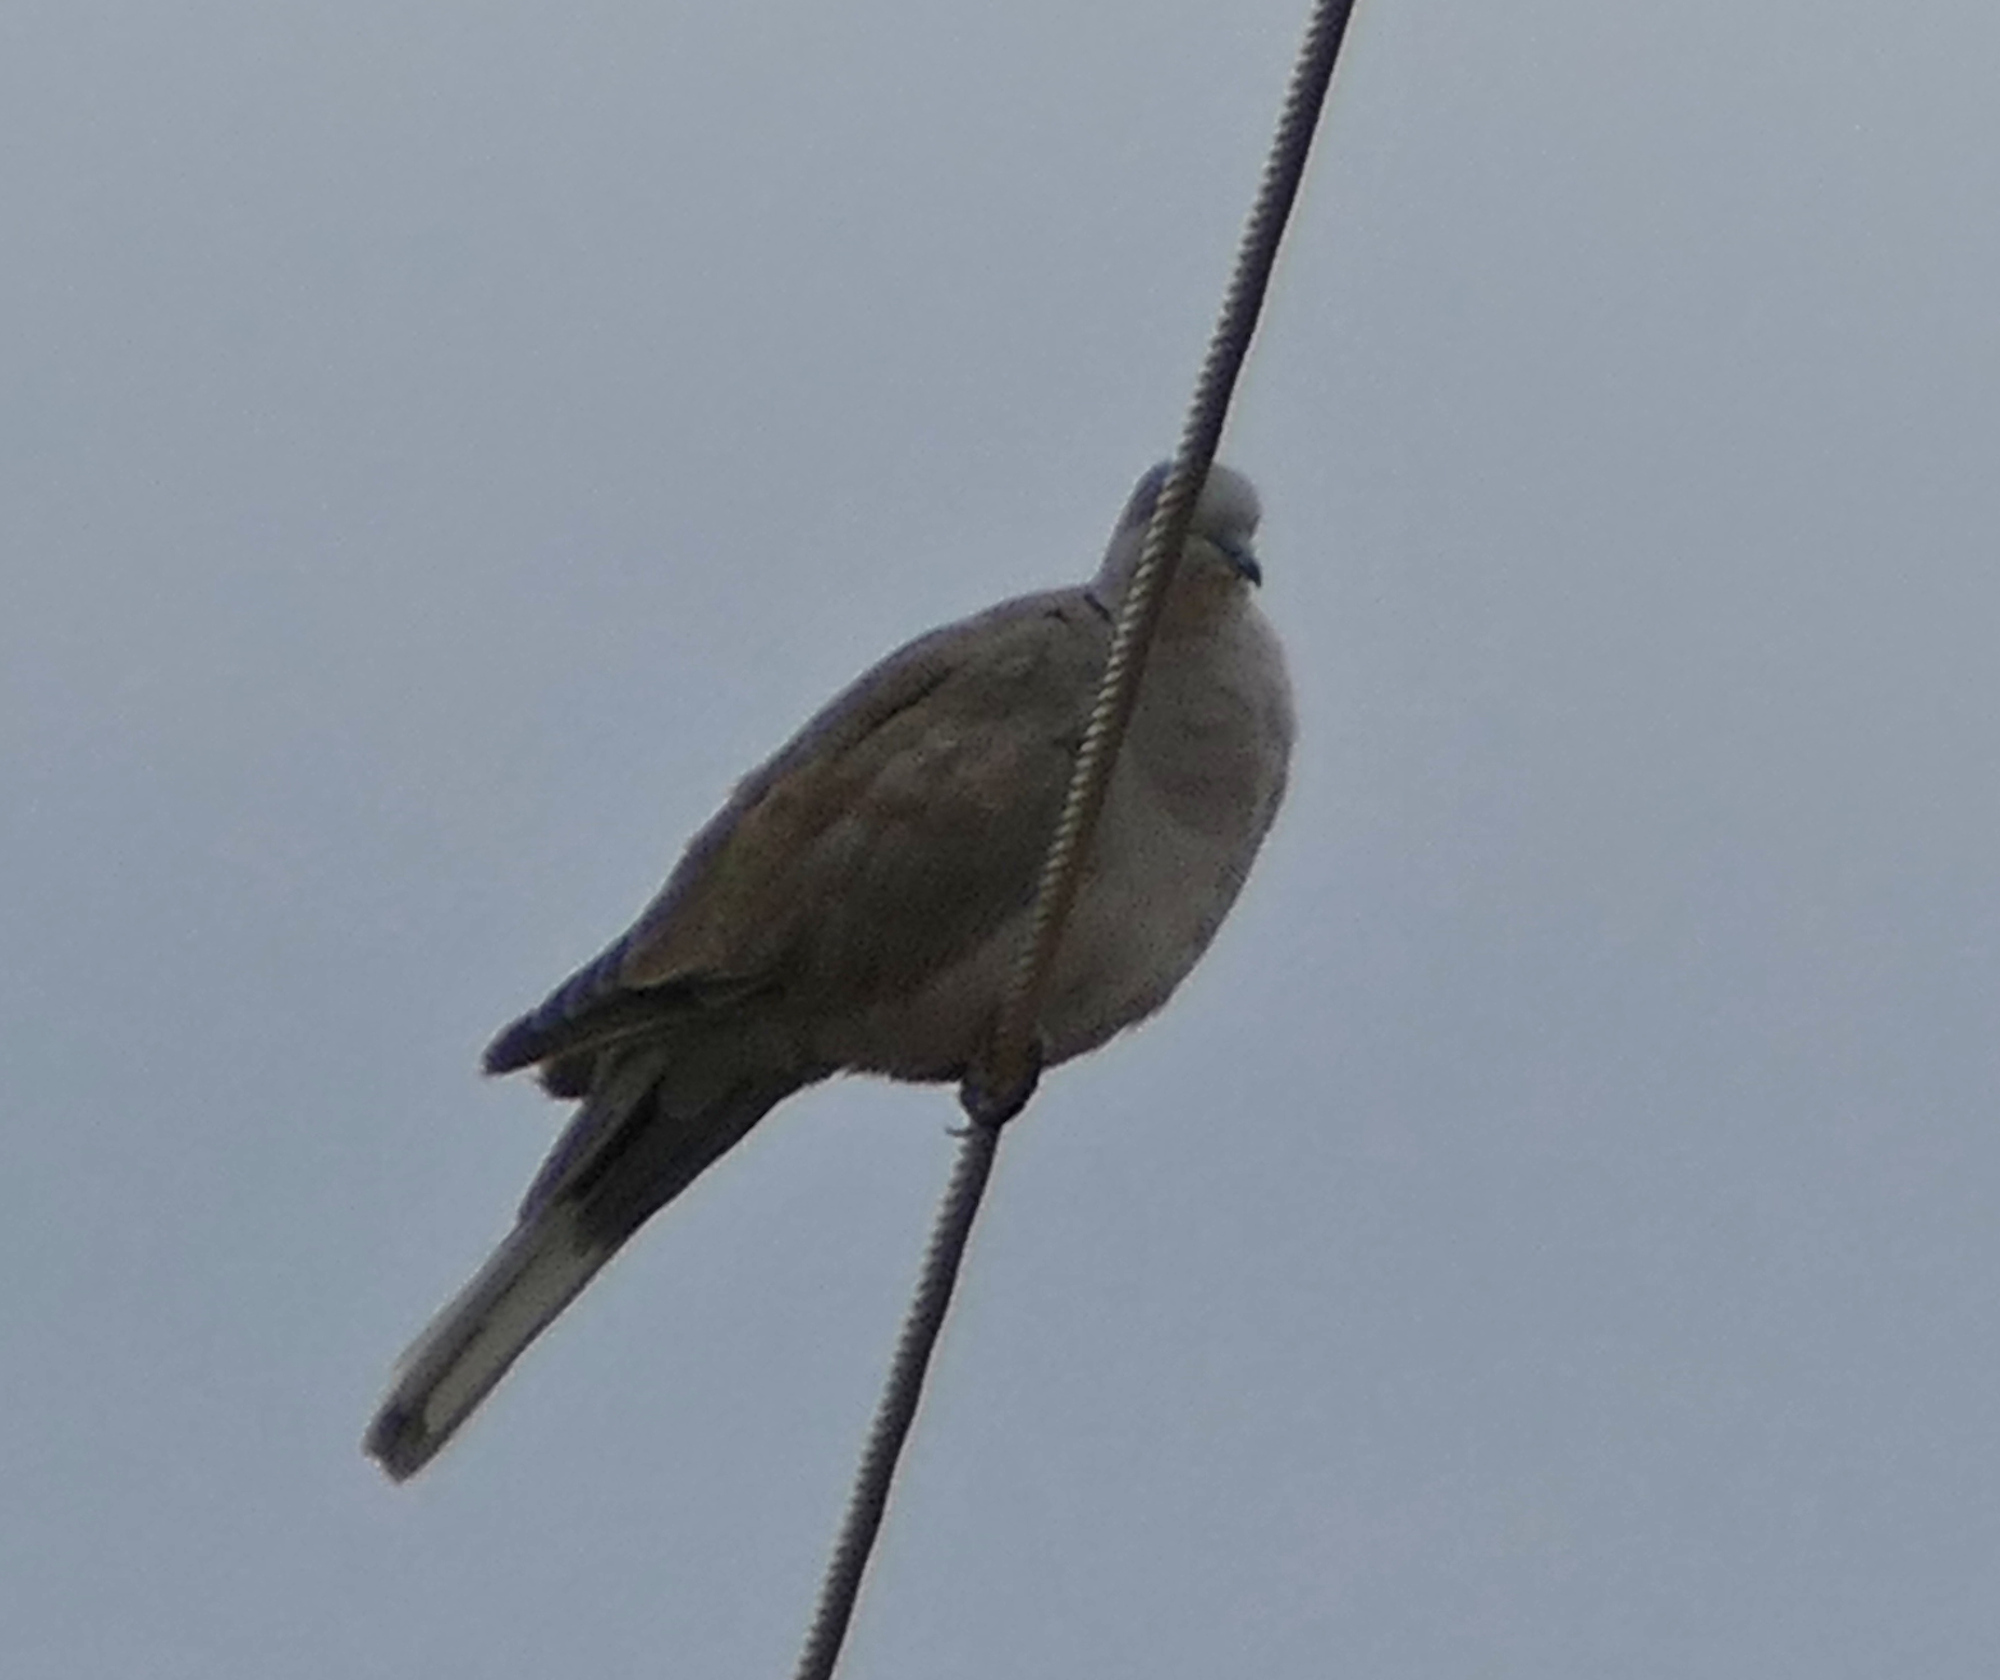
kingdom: Animalia
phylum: Chordata
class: Aves
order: Columbiformes
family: Columbidae
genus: Streptopelia
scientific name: Streptopelia decaocto
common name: Eurasian collared dove
